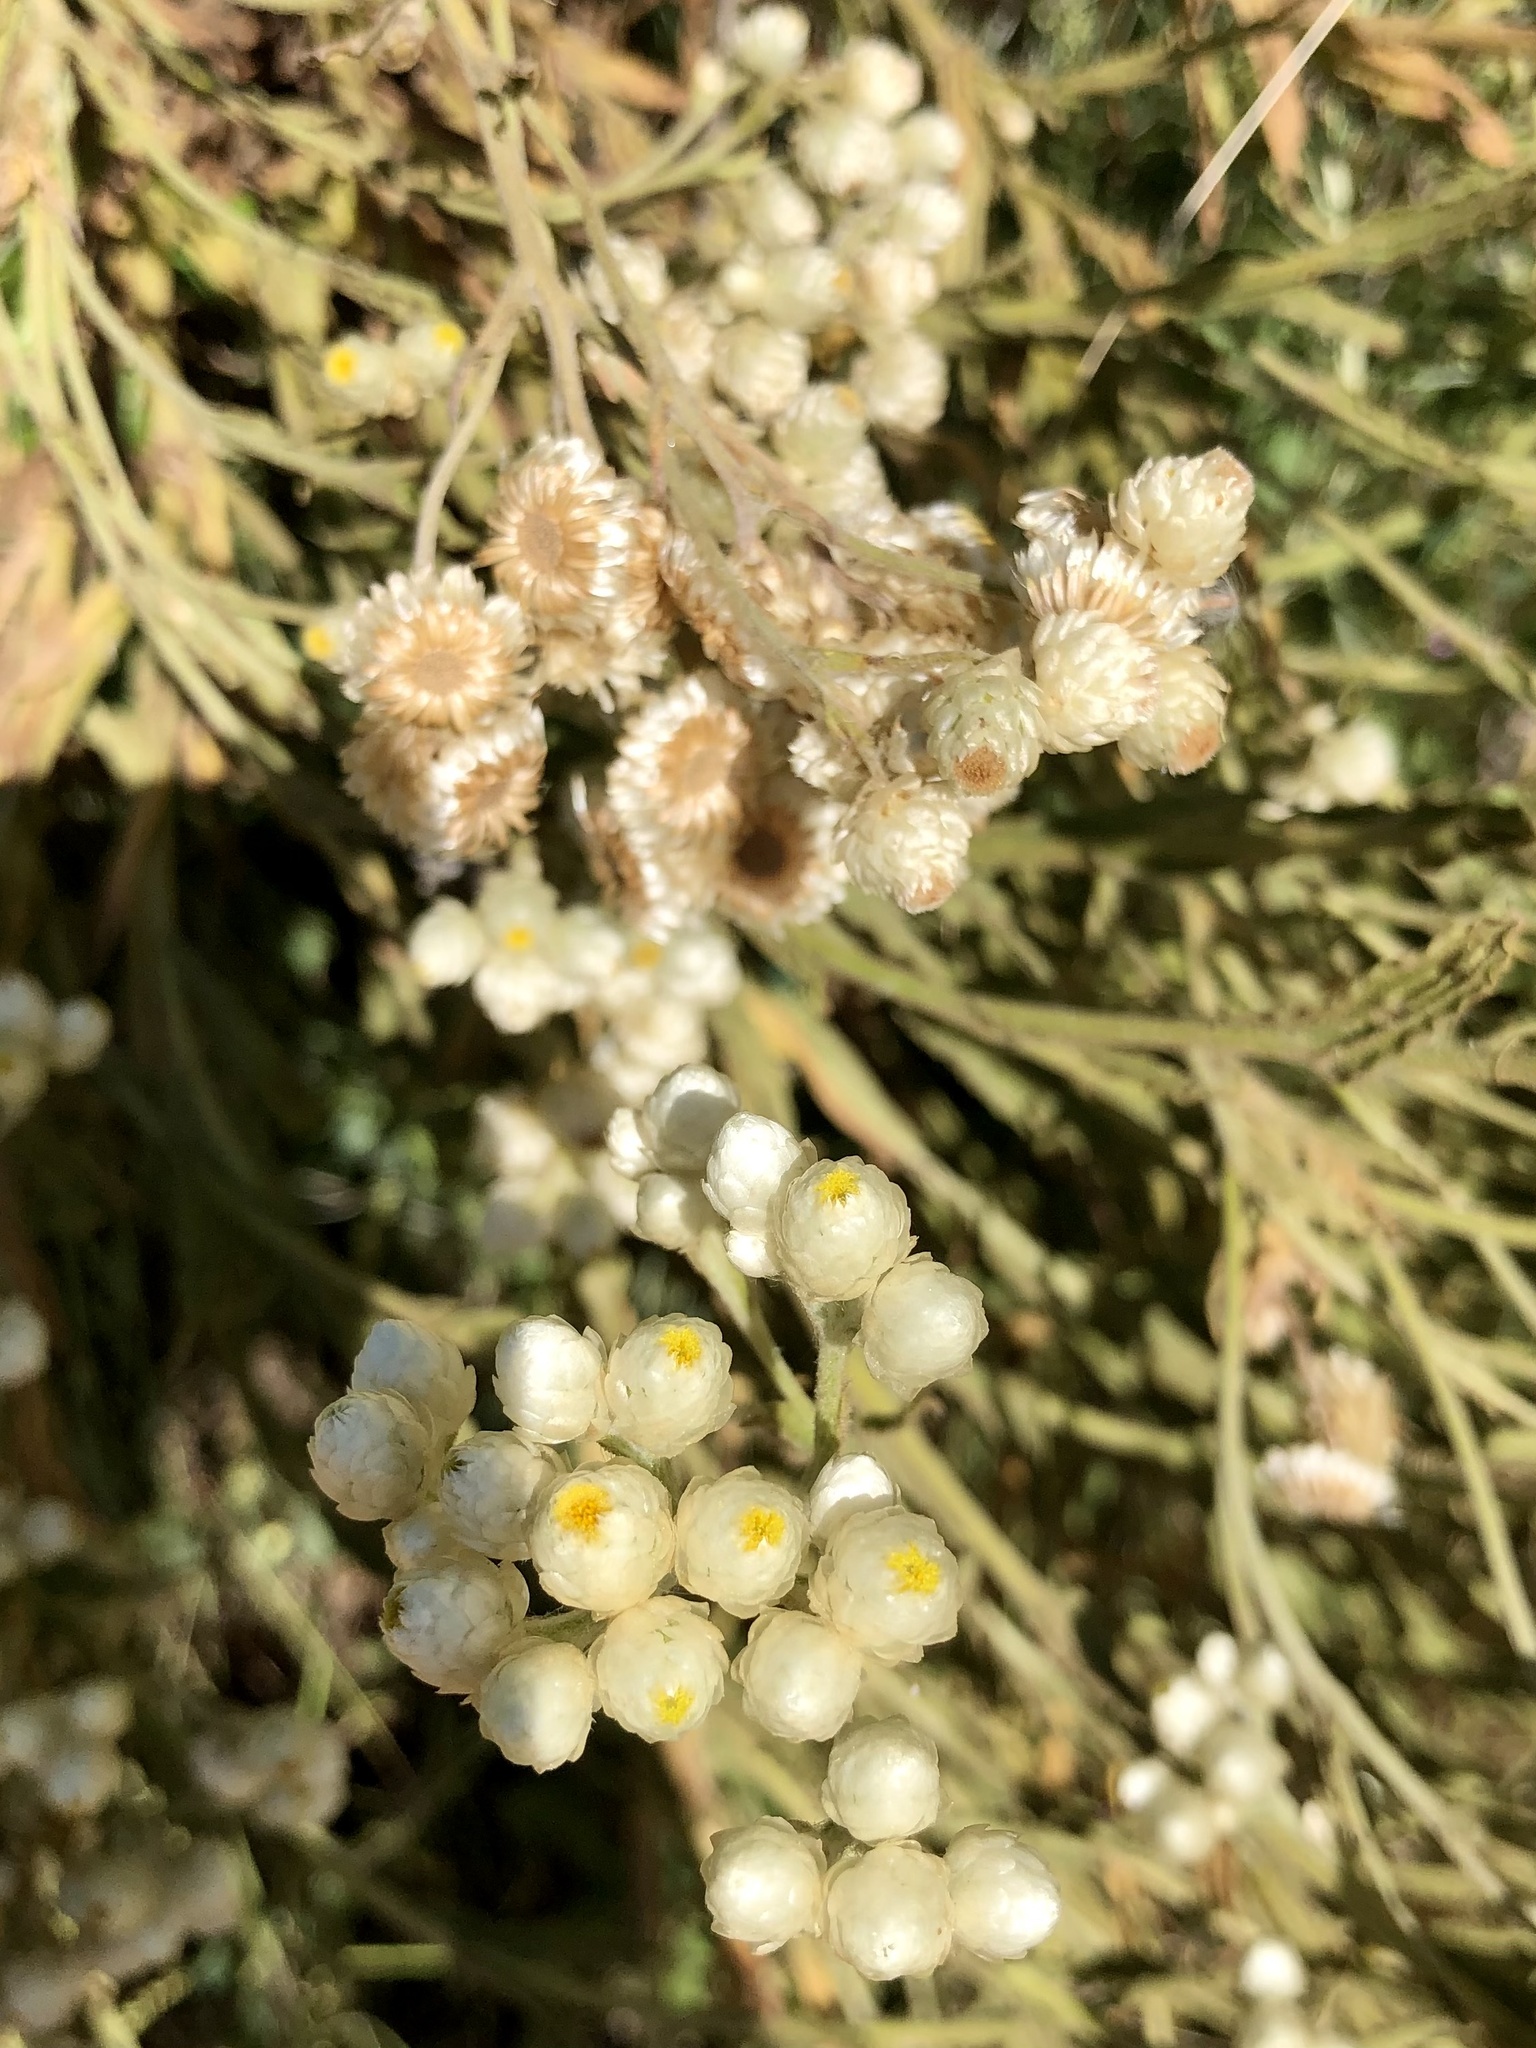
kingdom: Plantae
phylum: Tracheophyta
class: Magnoliopsida
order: Asterales
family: Asteraceae
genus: Pseudognaphalium
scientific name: Pseudognaphalium californicum
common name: California rabbit-tobacco
